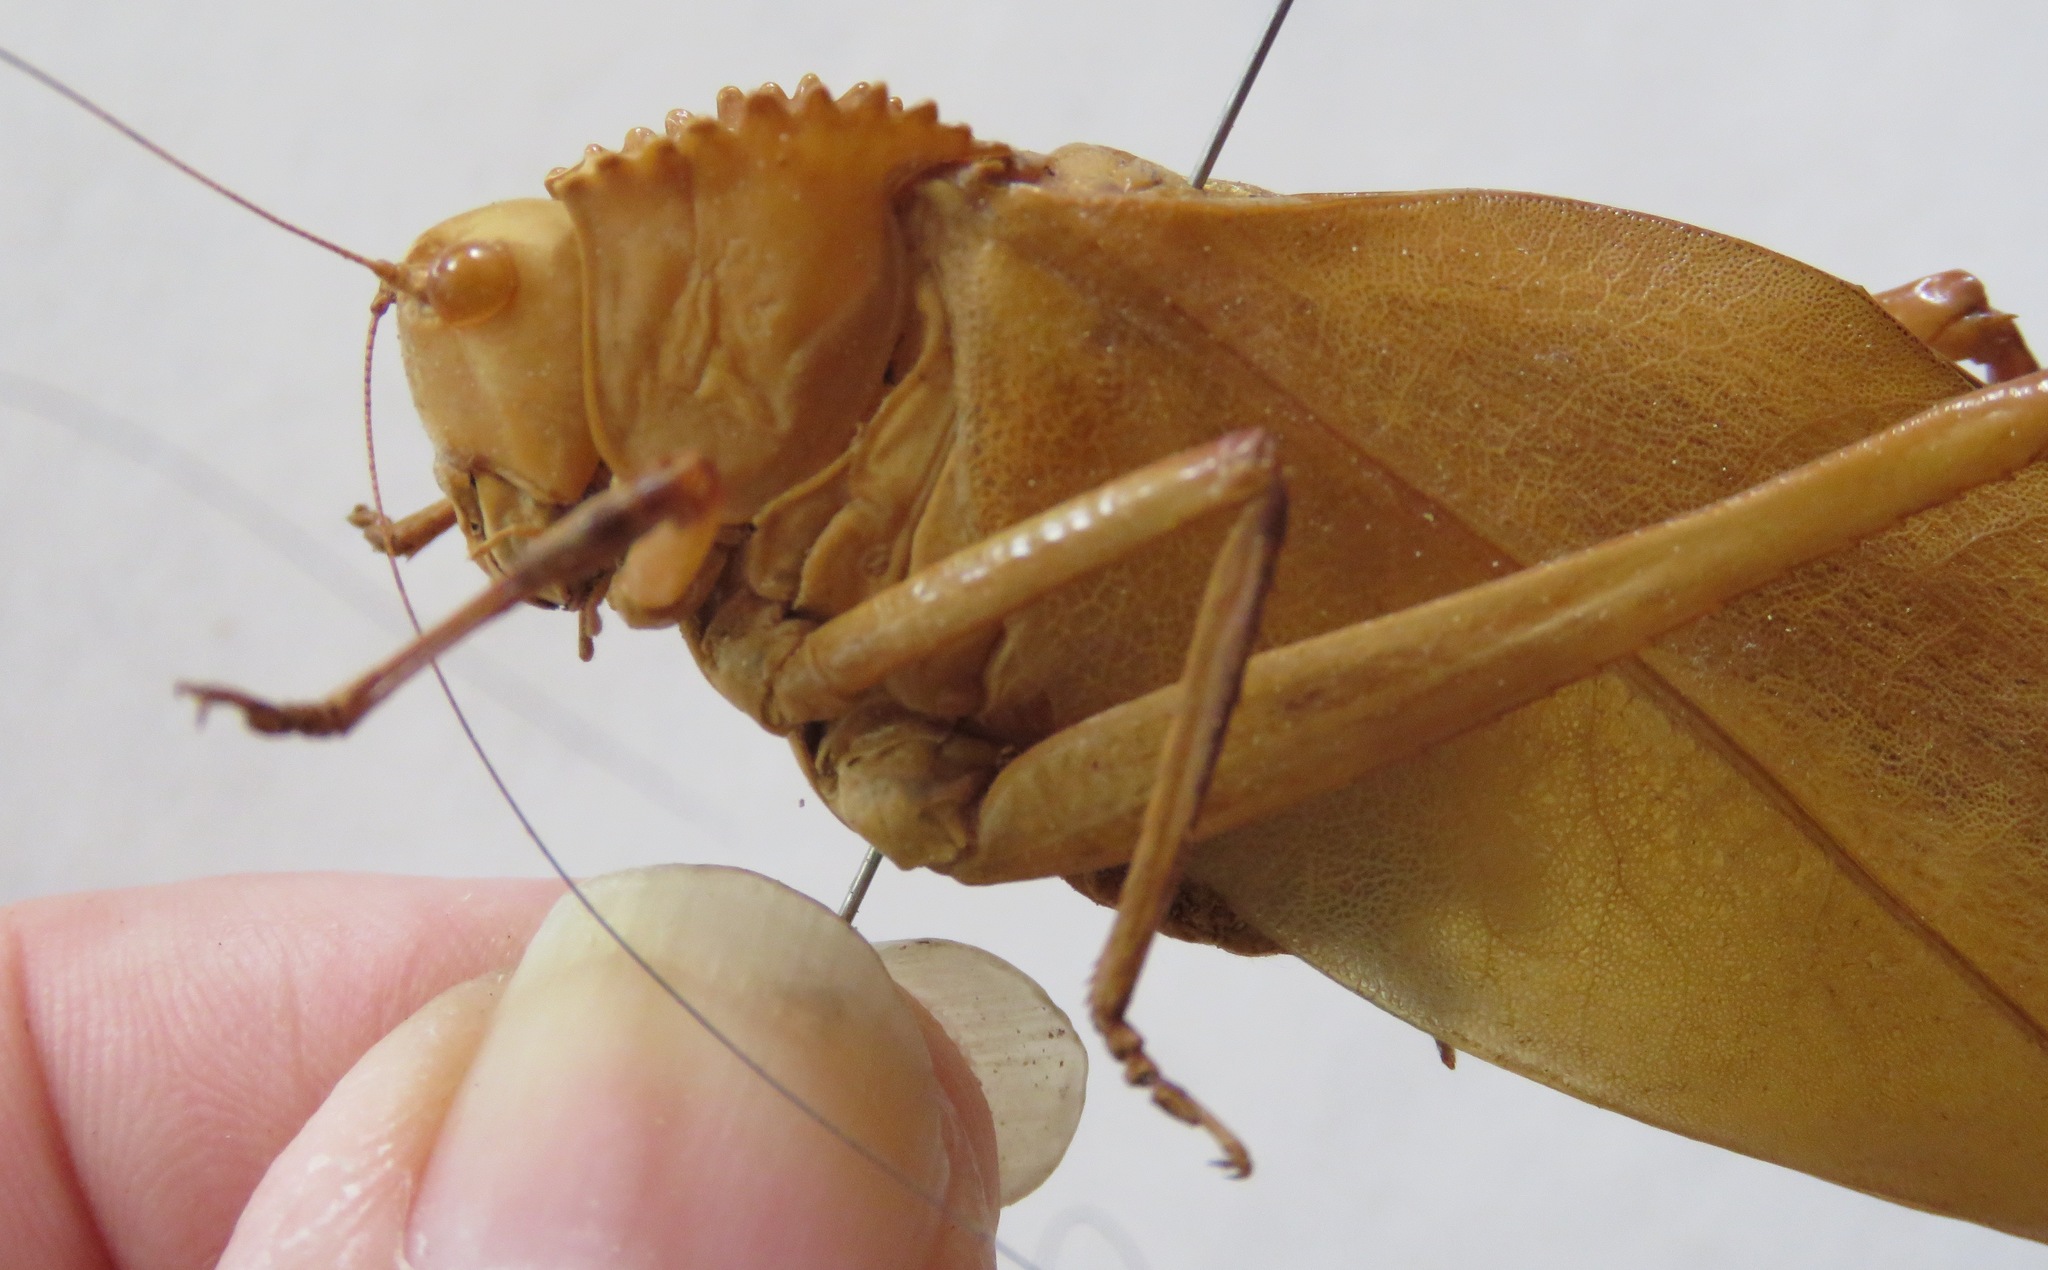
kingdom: Animalia
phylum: Arthropoda
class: Insecta
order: Orthoptera
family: Tettigoniidae
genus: Steirodon
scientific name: Steirodon stalii
